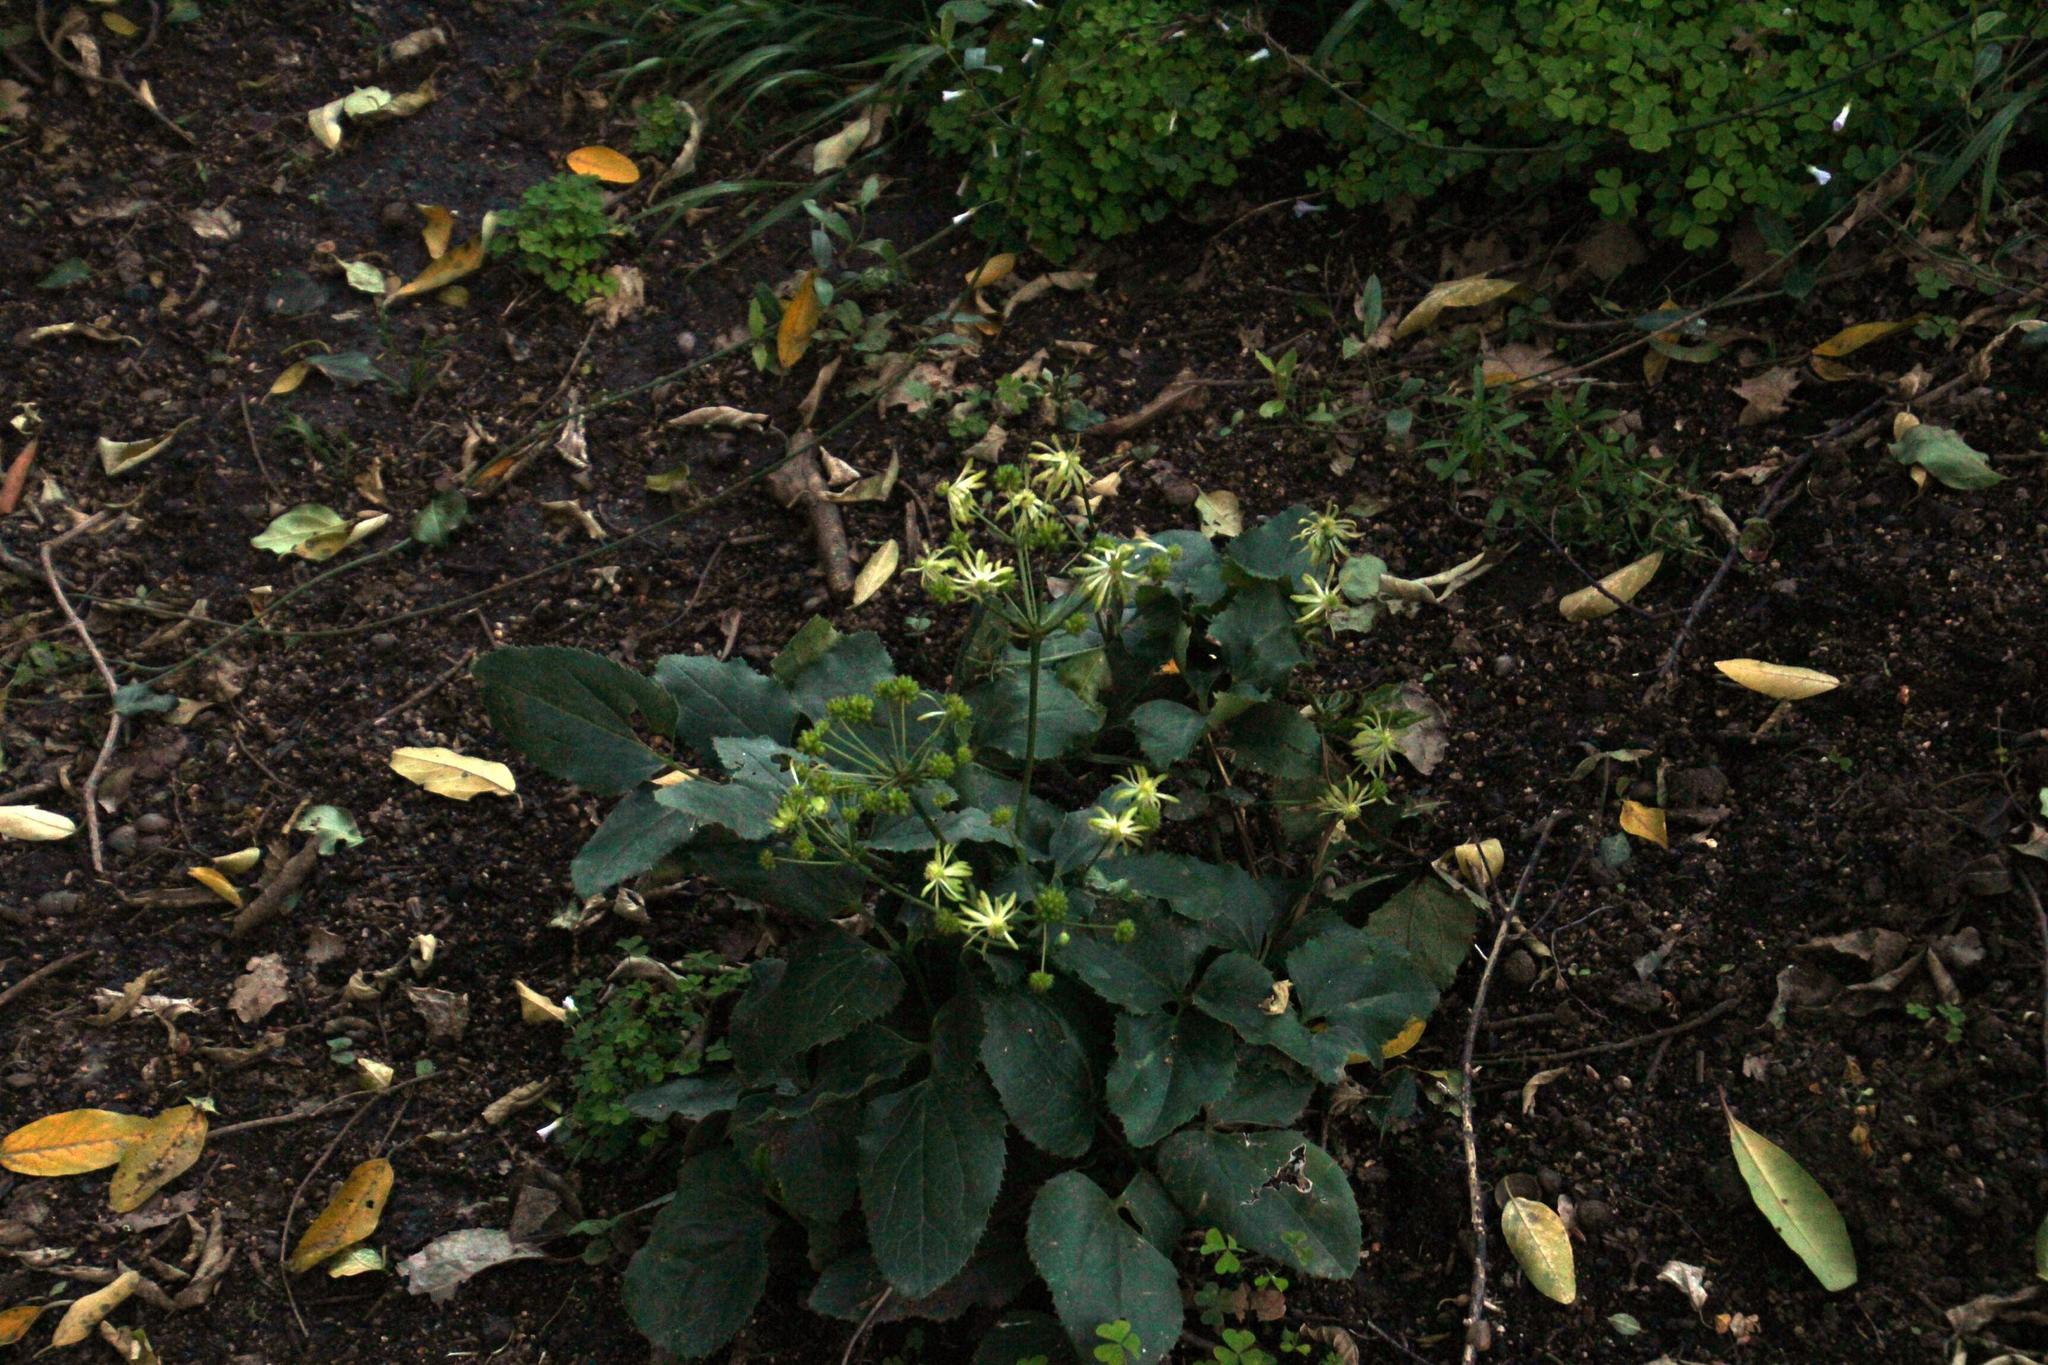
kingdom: Plantae
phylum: Tracheophyta
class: Magnoliopsida
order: Ranunculales
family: Ranunculaceae
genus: Knowltonia
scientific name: Knowltonia vesicatoria
